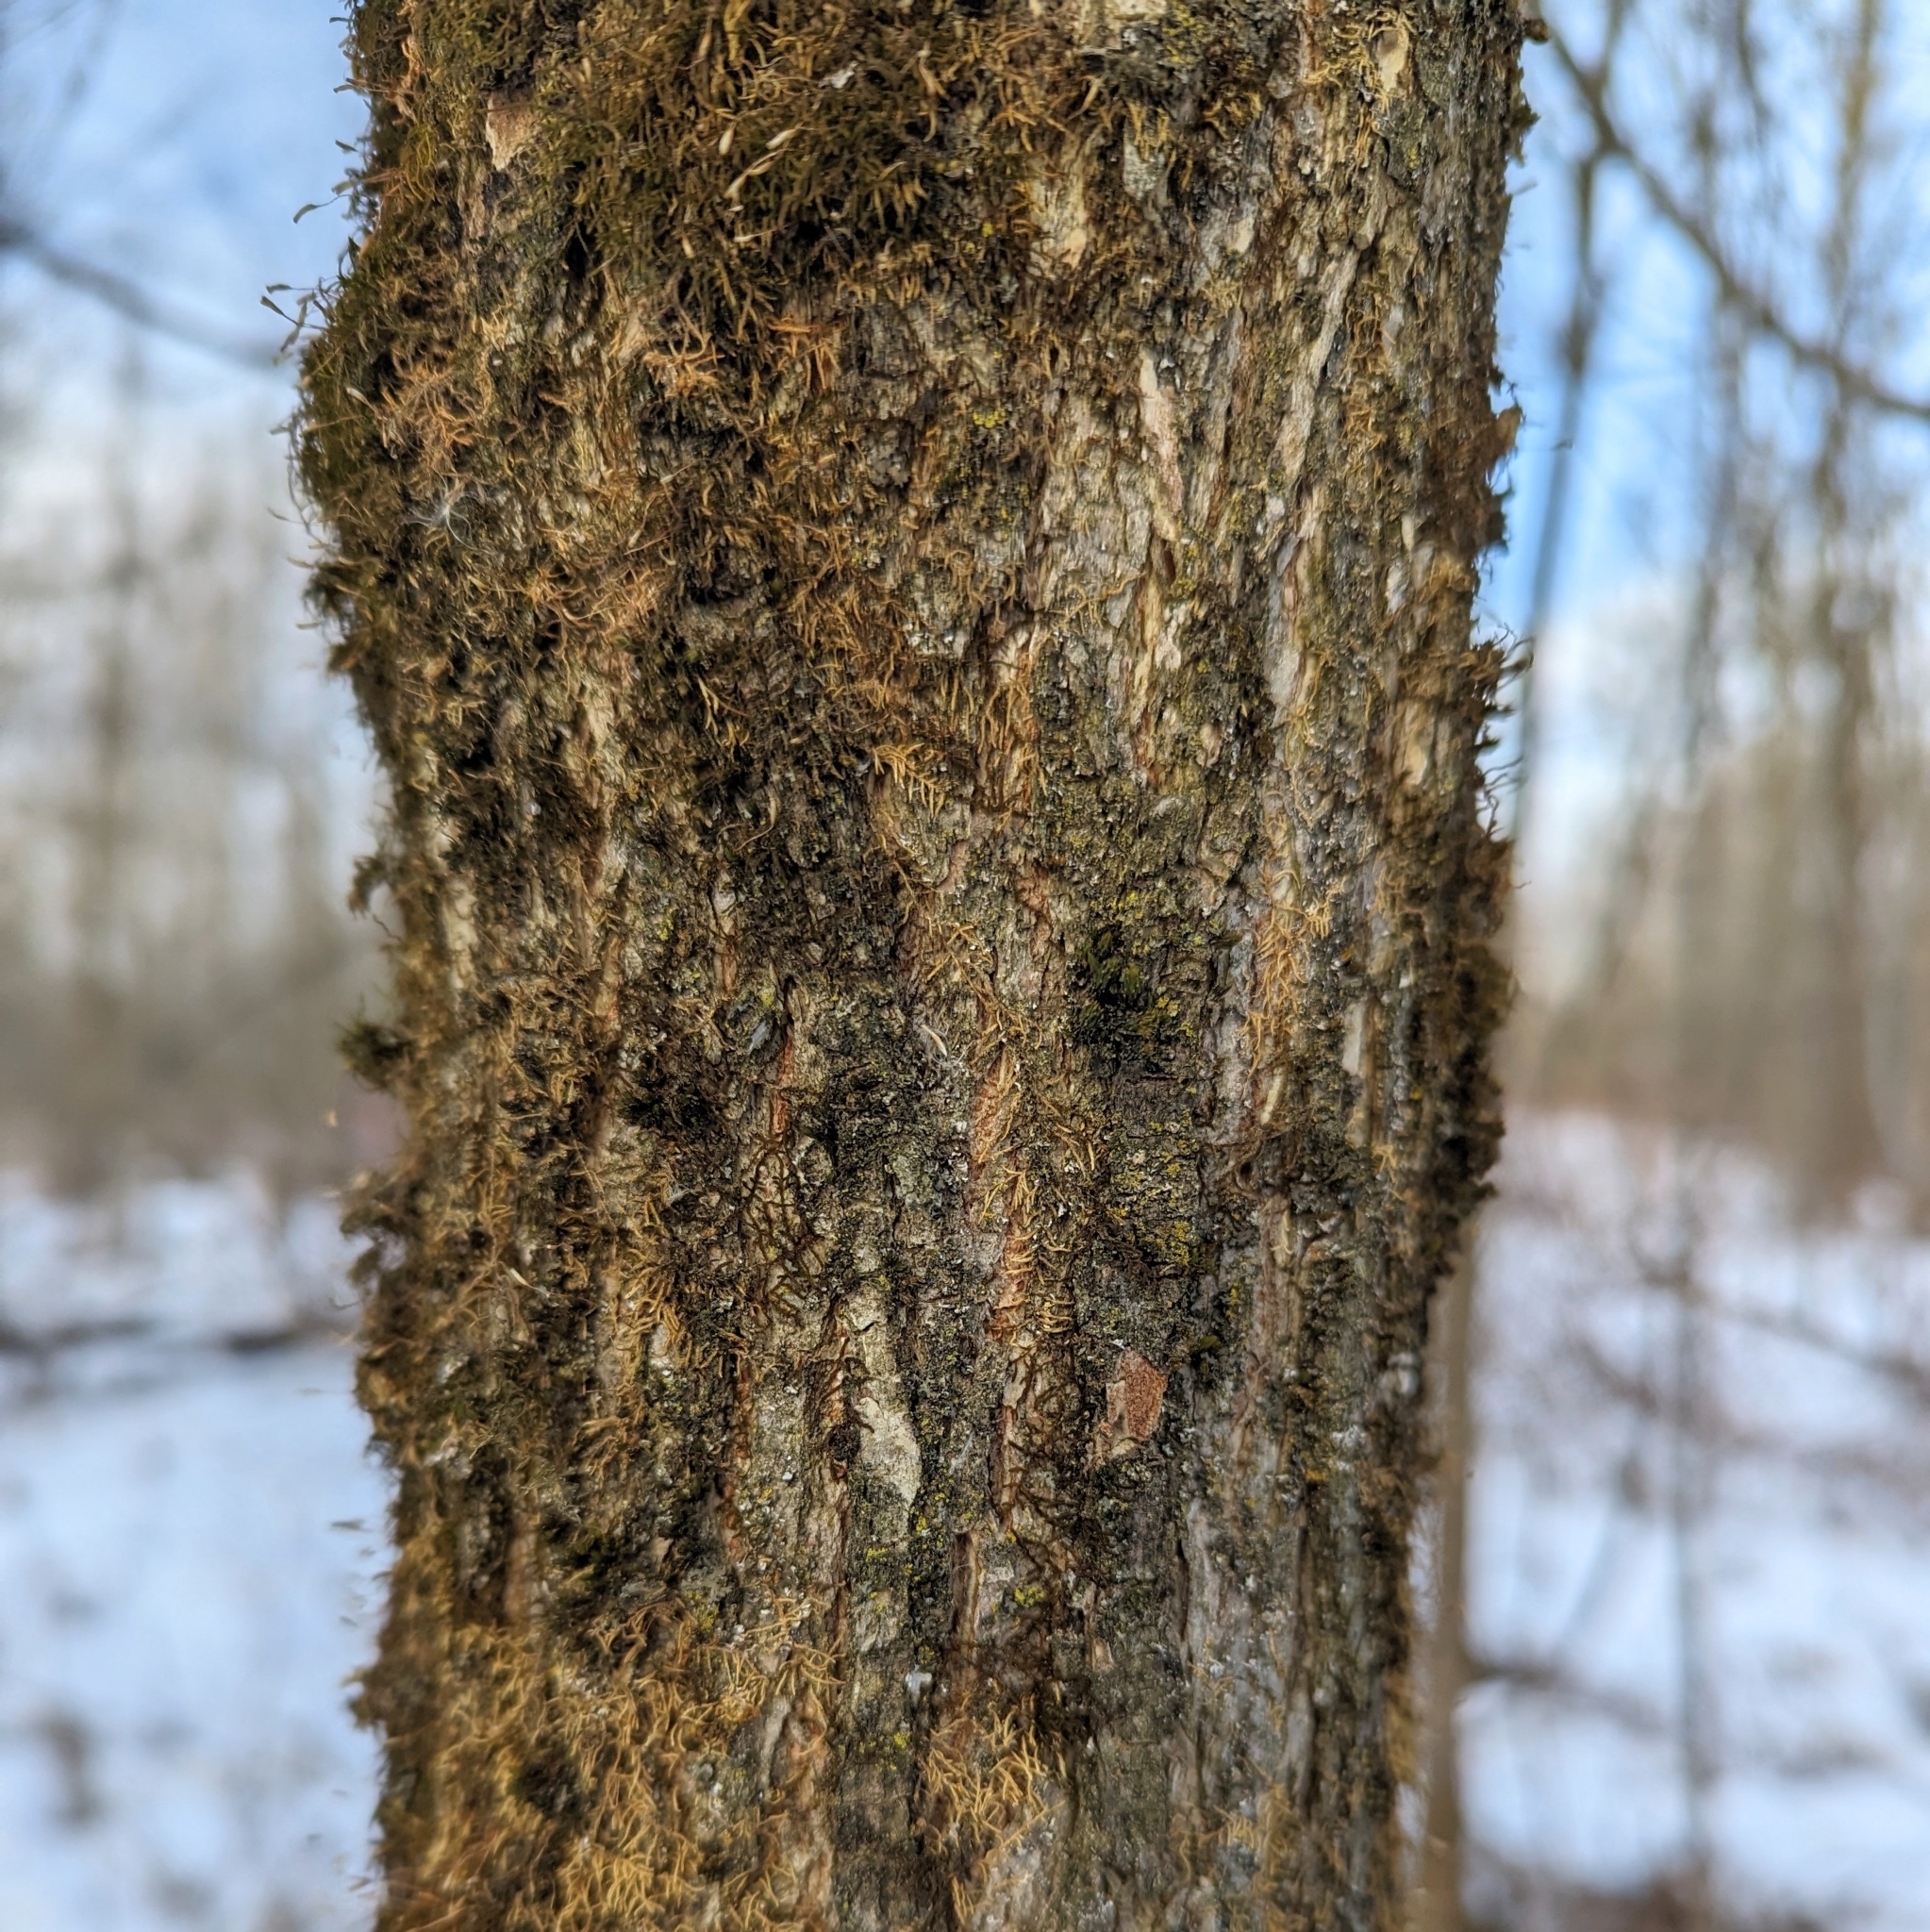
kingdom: Plantae
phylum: Tracheophyta
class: Magnoliopsida
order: Rosales
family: Ulmaceae
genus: Ulmus
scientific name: Ulmus
